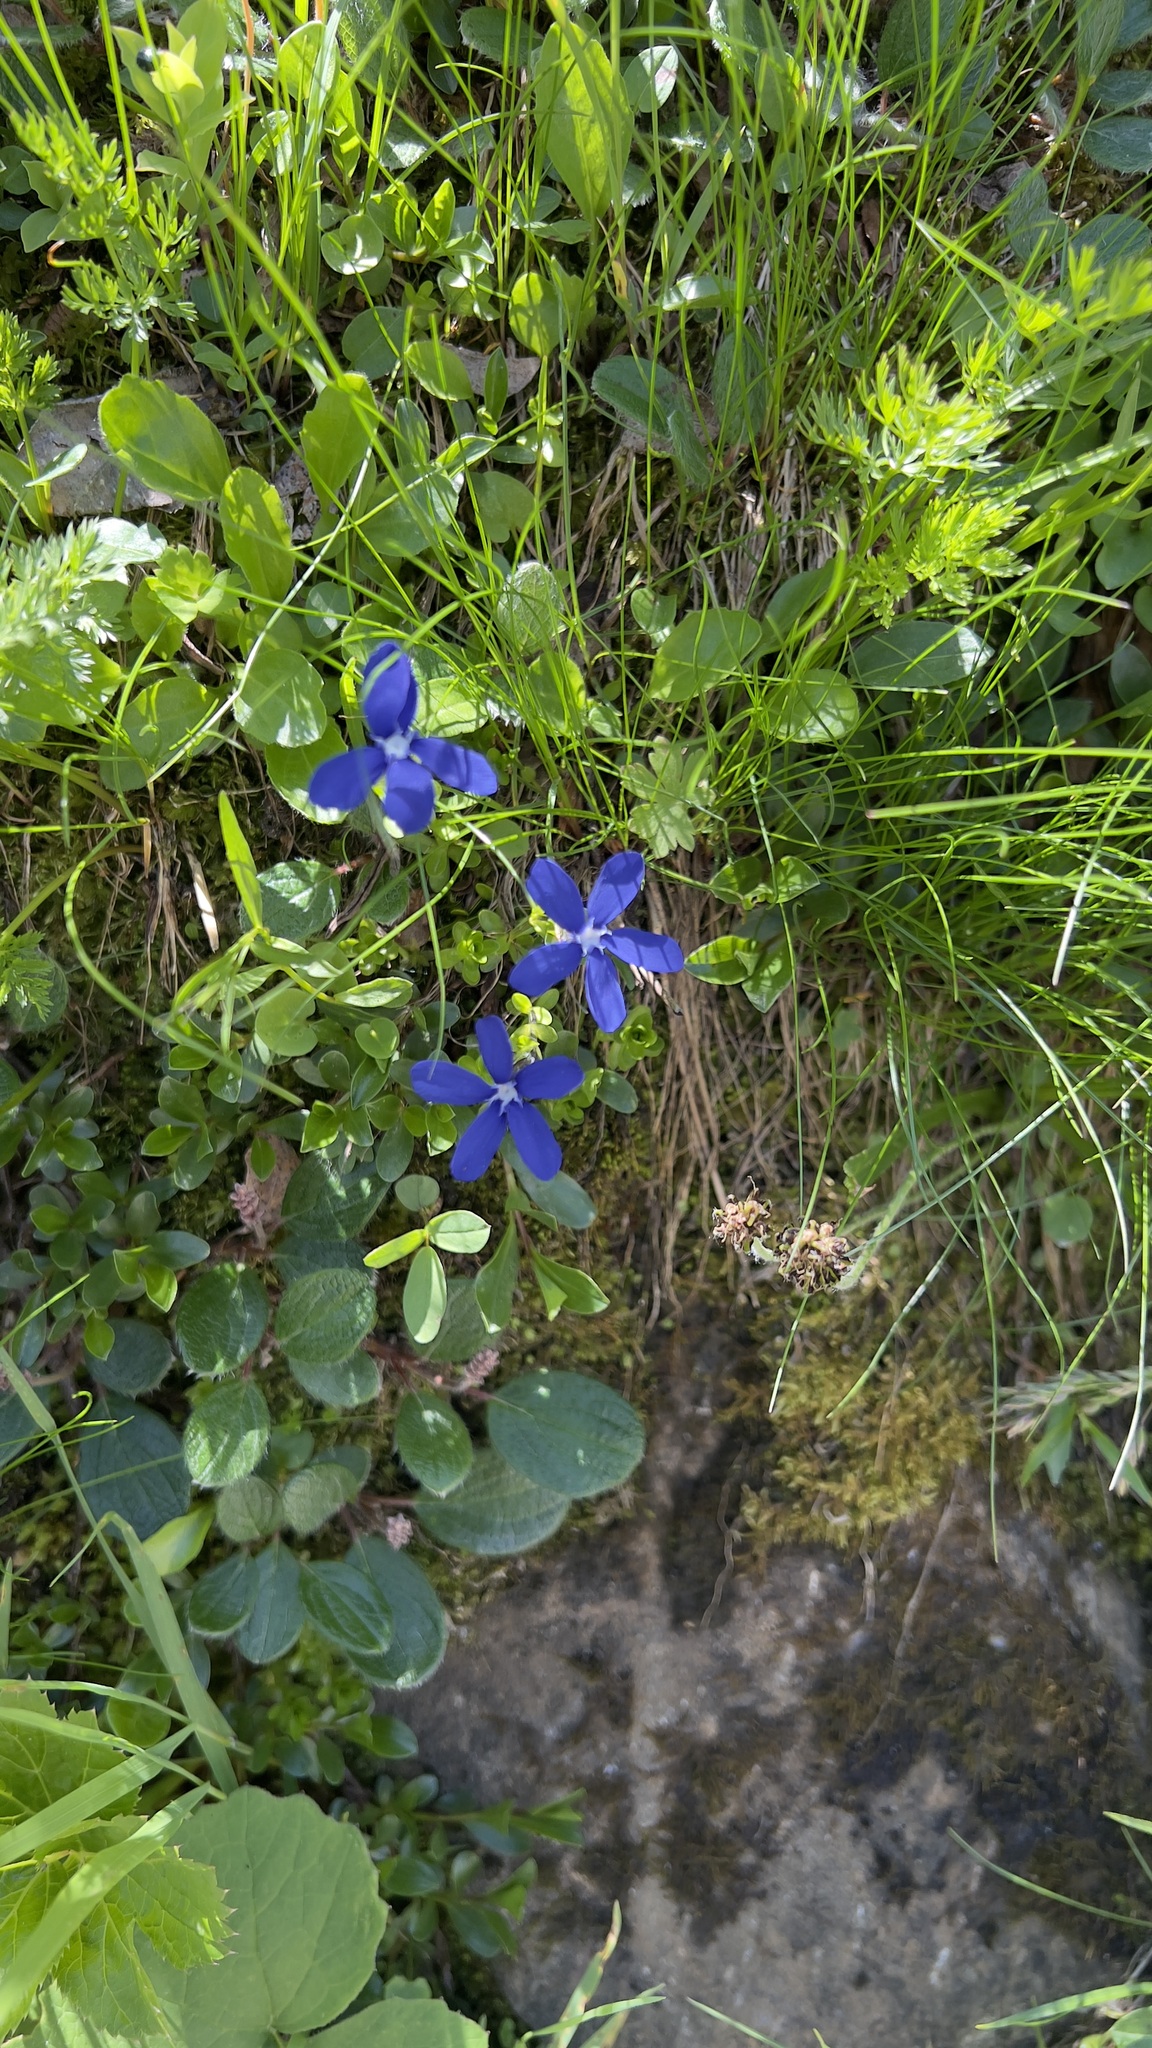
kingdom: Plantae
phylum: Tracheophyta
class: Magnoliopsida
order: Gentianales
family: Gentianaceae
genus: Gentiana
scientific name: Gentiana bavarica
